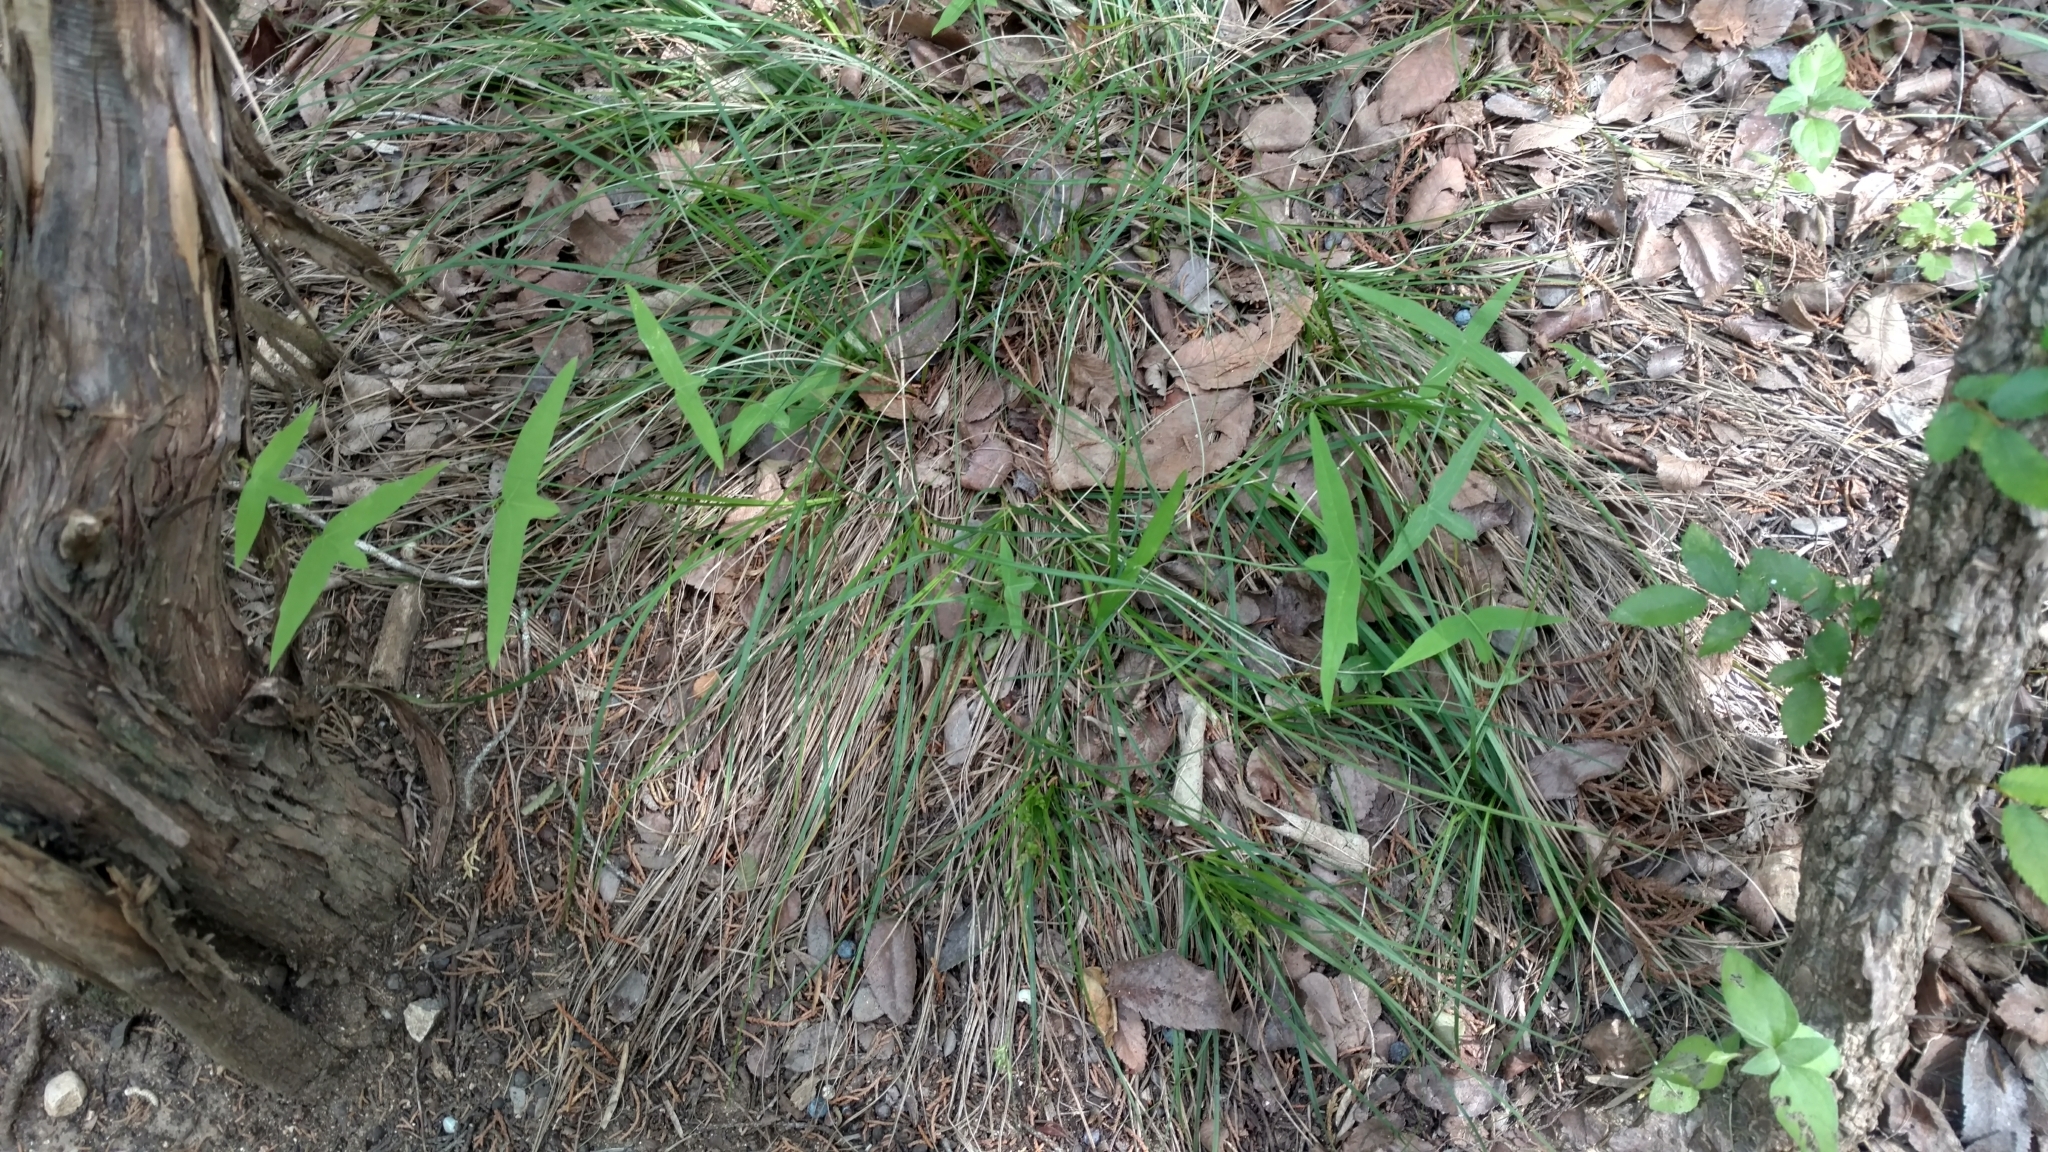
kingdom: Plantae
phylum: Tracheophyta
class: Magnoliopsida
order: Malpighiales
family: Passifloraceae
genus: Passiflora
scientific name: Passiflora tenuiloba
